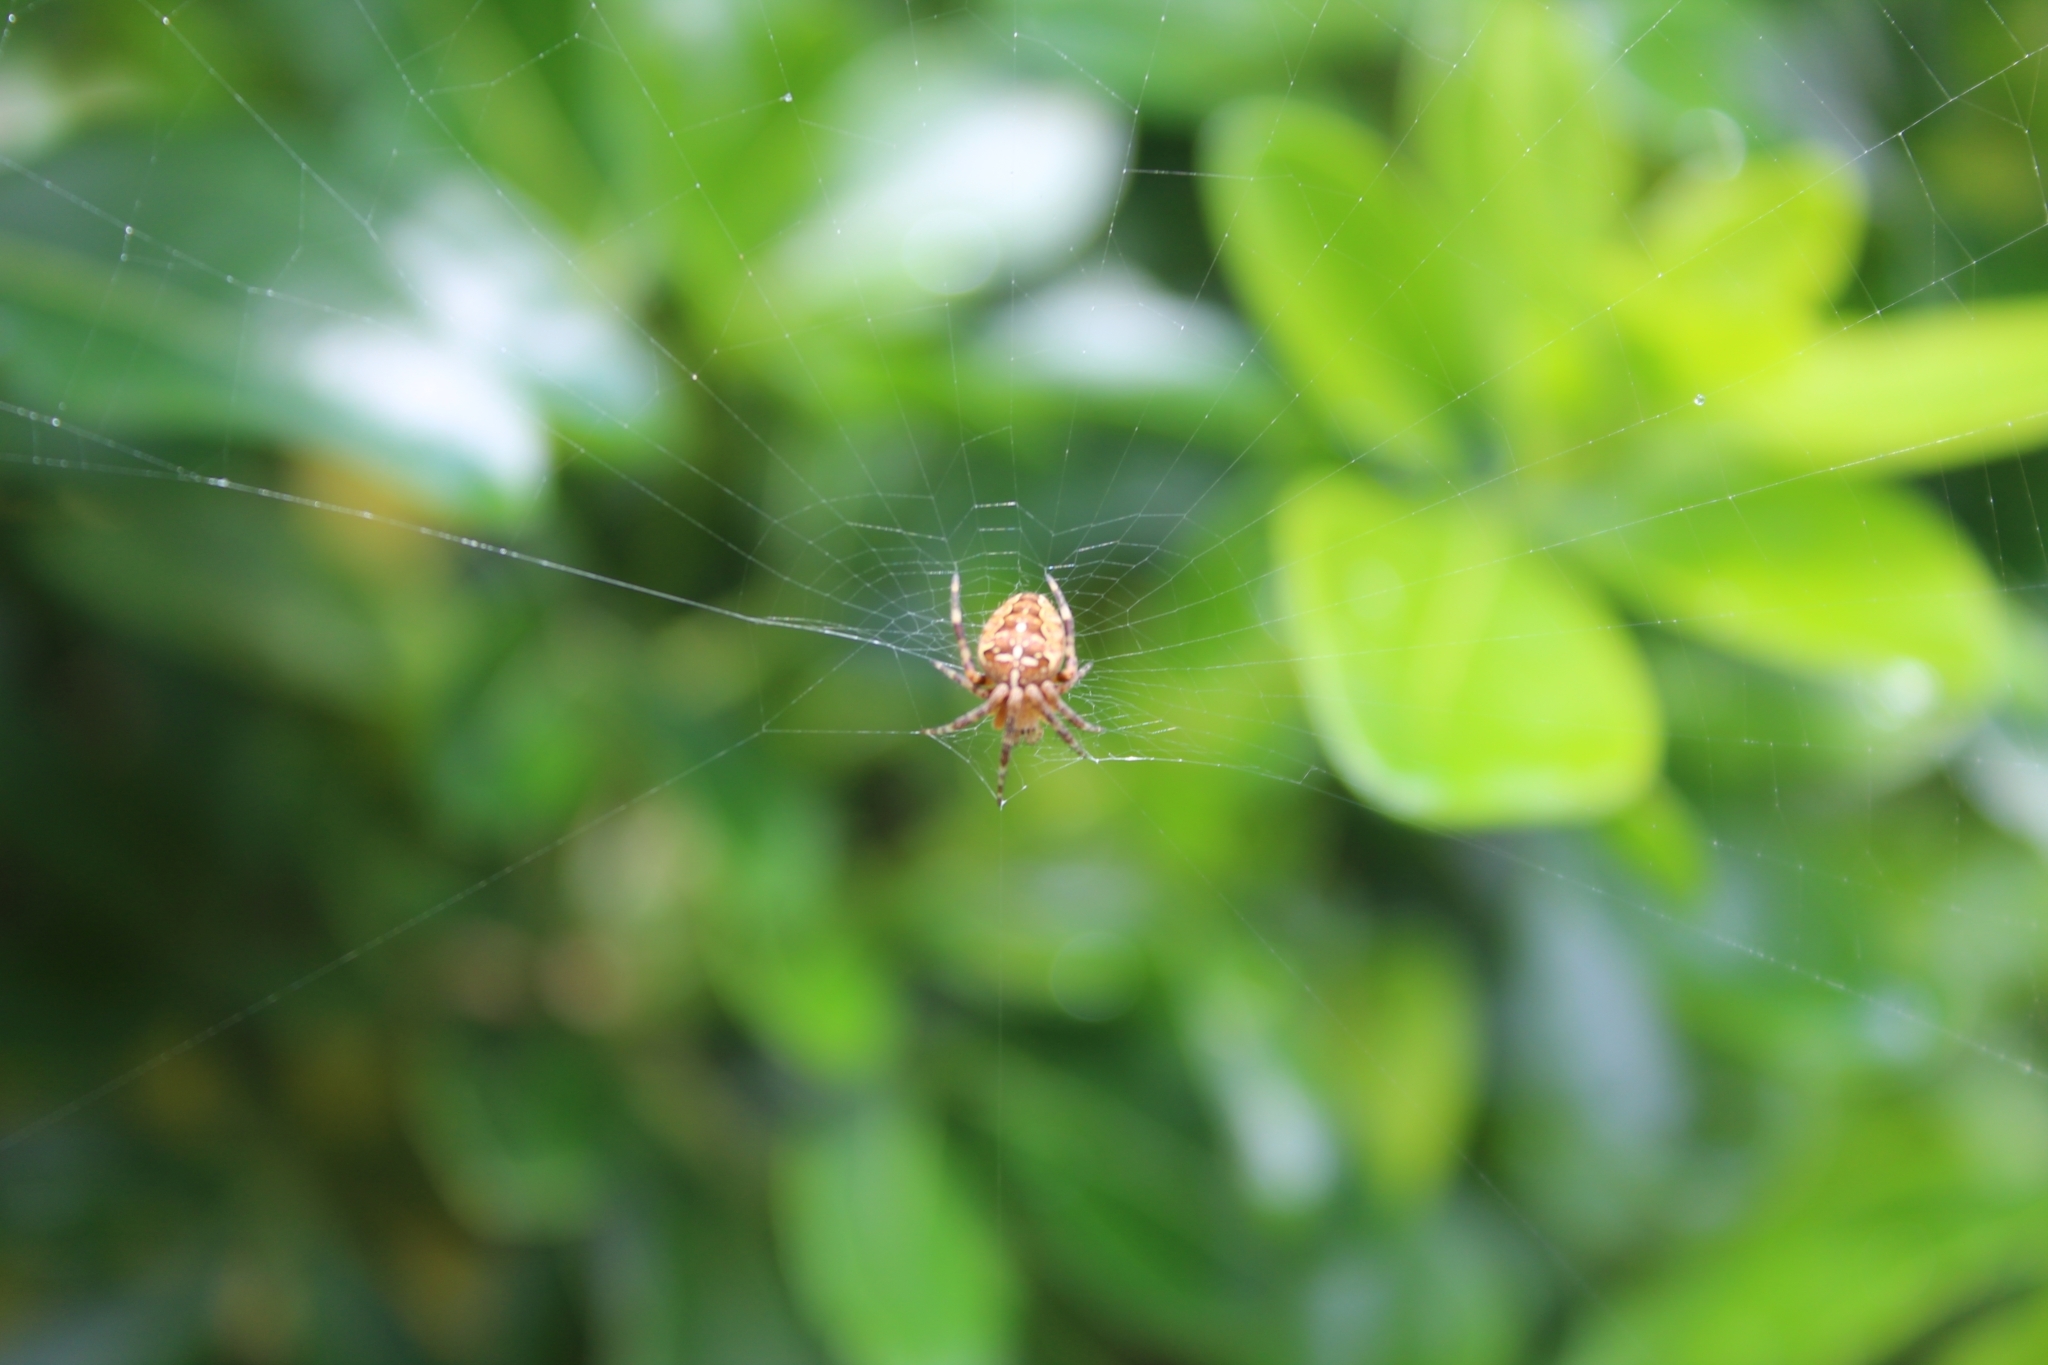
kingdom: Animalia
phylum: Arthropoda
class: Arachnida
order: Araneae
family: Araneidae
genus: Araneus
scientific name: Araneus diadematus
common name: Cross orbweaver
